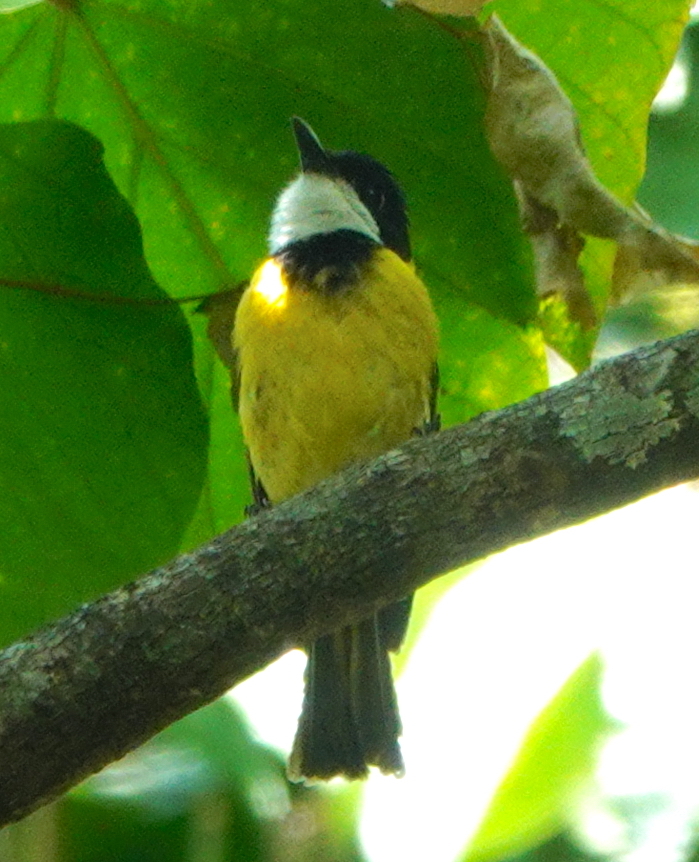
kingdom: Animalia
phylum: Chordata
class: Aves
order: Passeriformes
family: Pachycephalidae
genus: Pachycephala
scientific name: Pachycephala macrorhyncha
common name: Yellow-throated whistler
